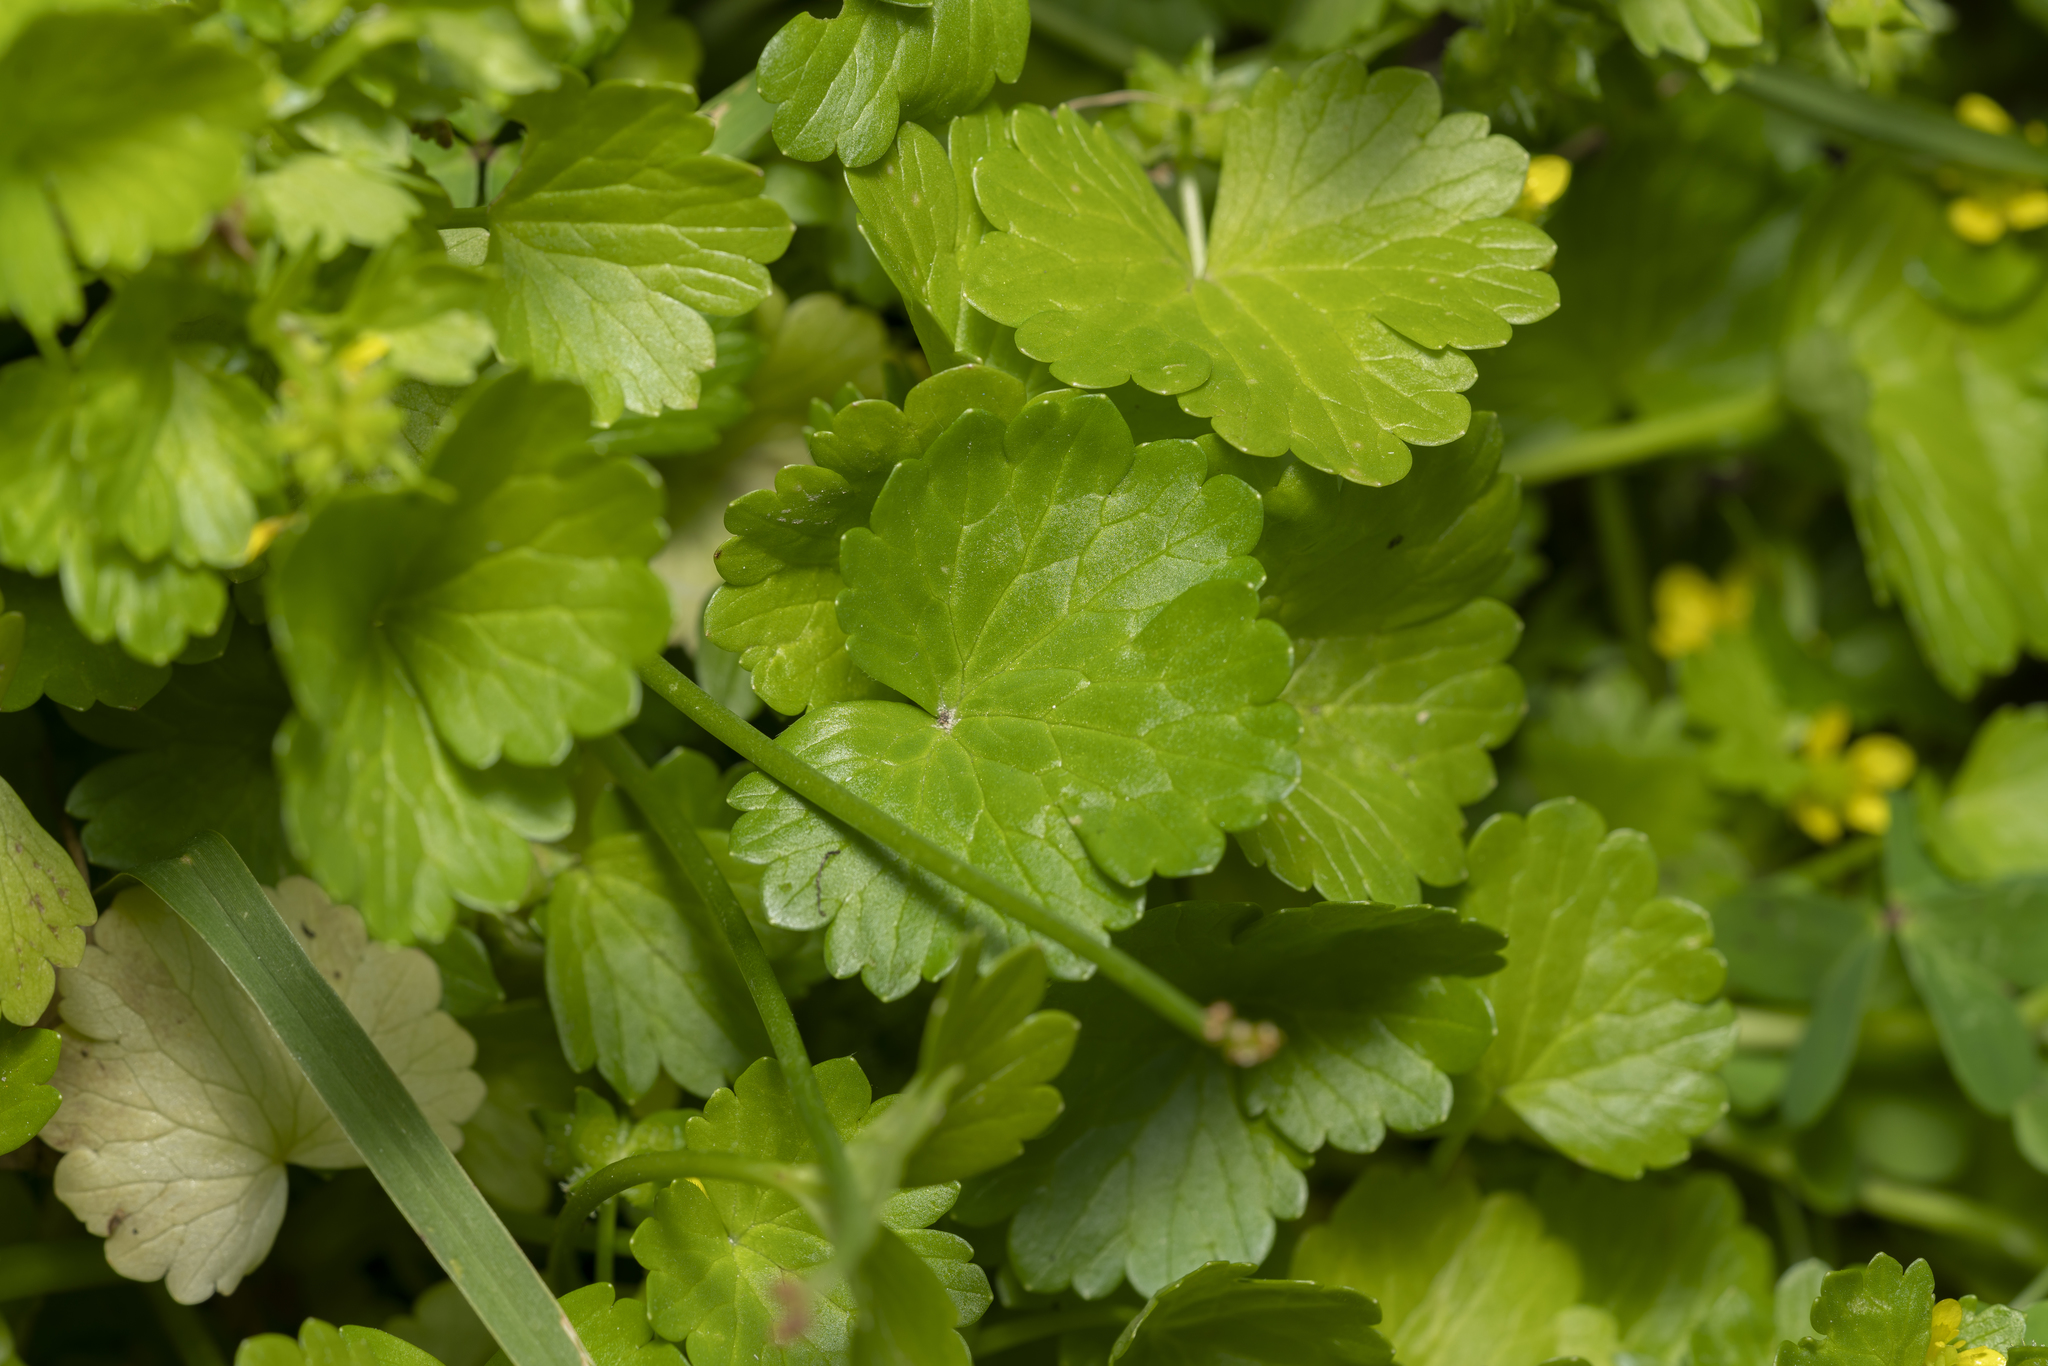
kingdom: Plantae
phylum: Tracheophyta
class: Magnoliopsida
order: Ranunculales
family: Ranunculaceae
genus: Ranunculus
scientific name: Ranunculus muricatus
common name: Rough-fruited buttercup
